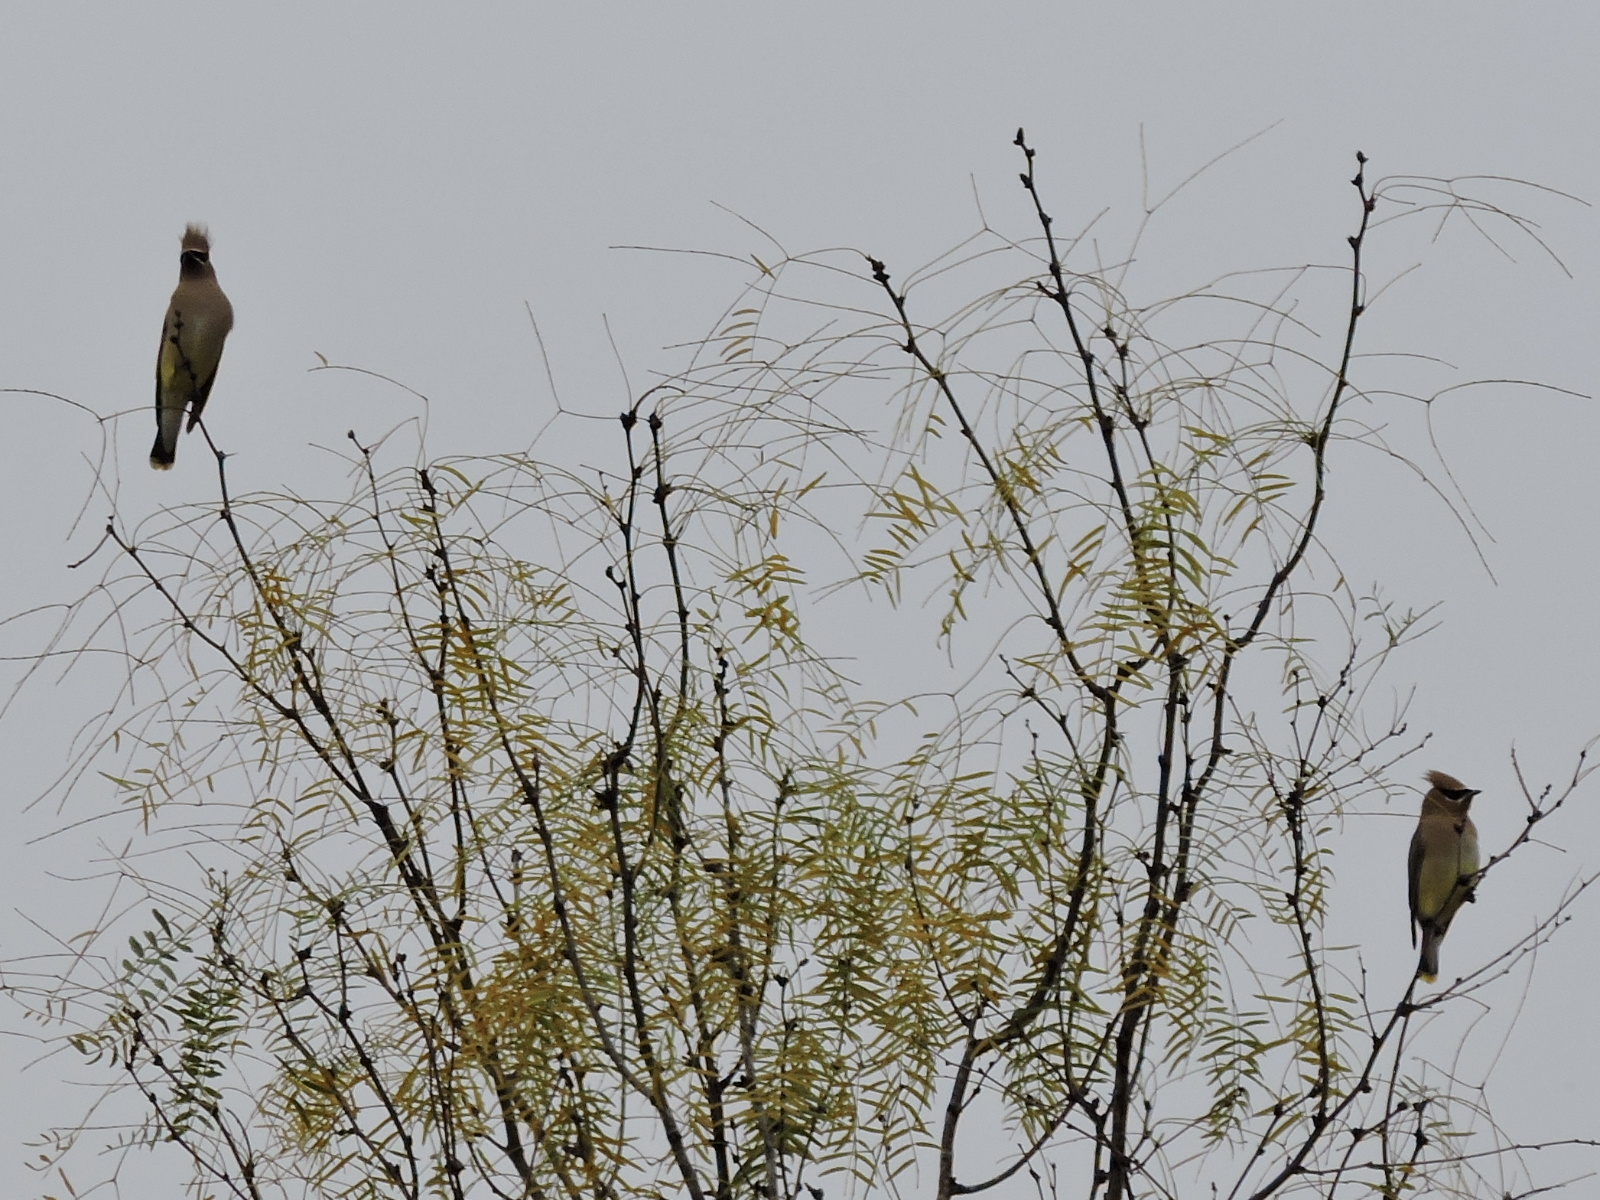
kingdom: Animalia
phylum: Chordata
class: Aves
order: Passeriformes
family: Bombycillidae
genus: Bombycilla
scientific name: Bombycilla cedrorum
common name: Cedar waxwing
